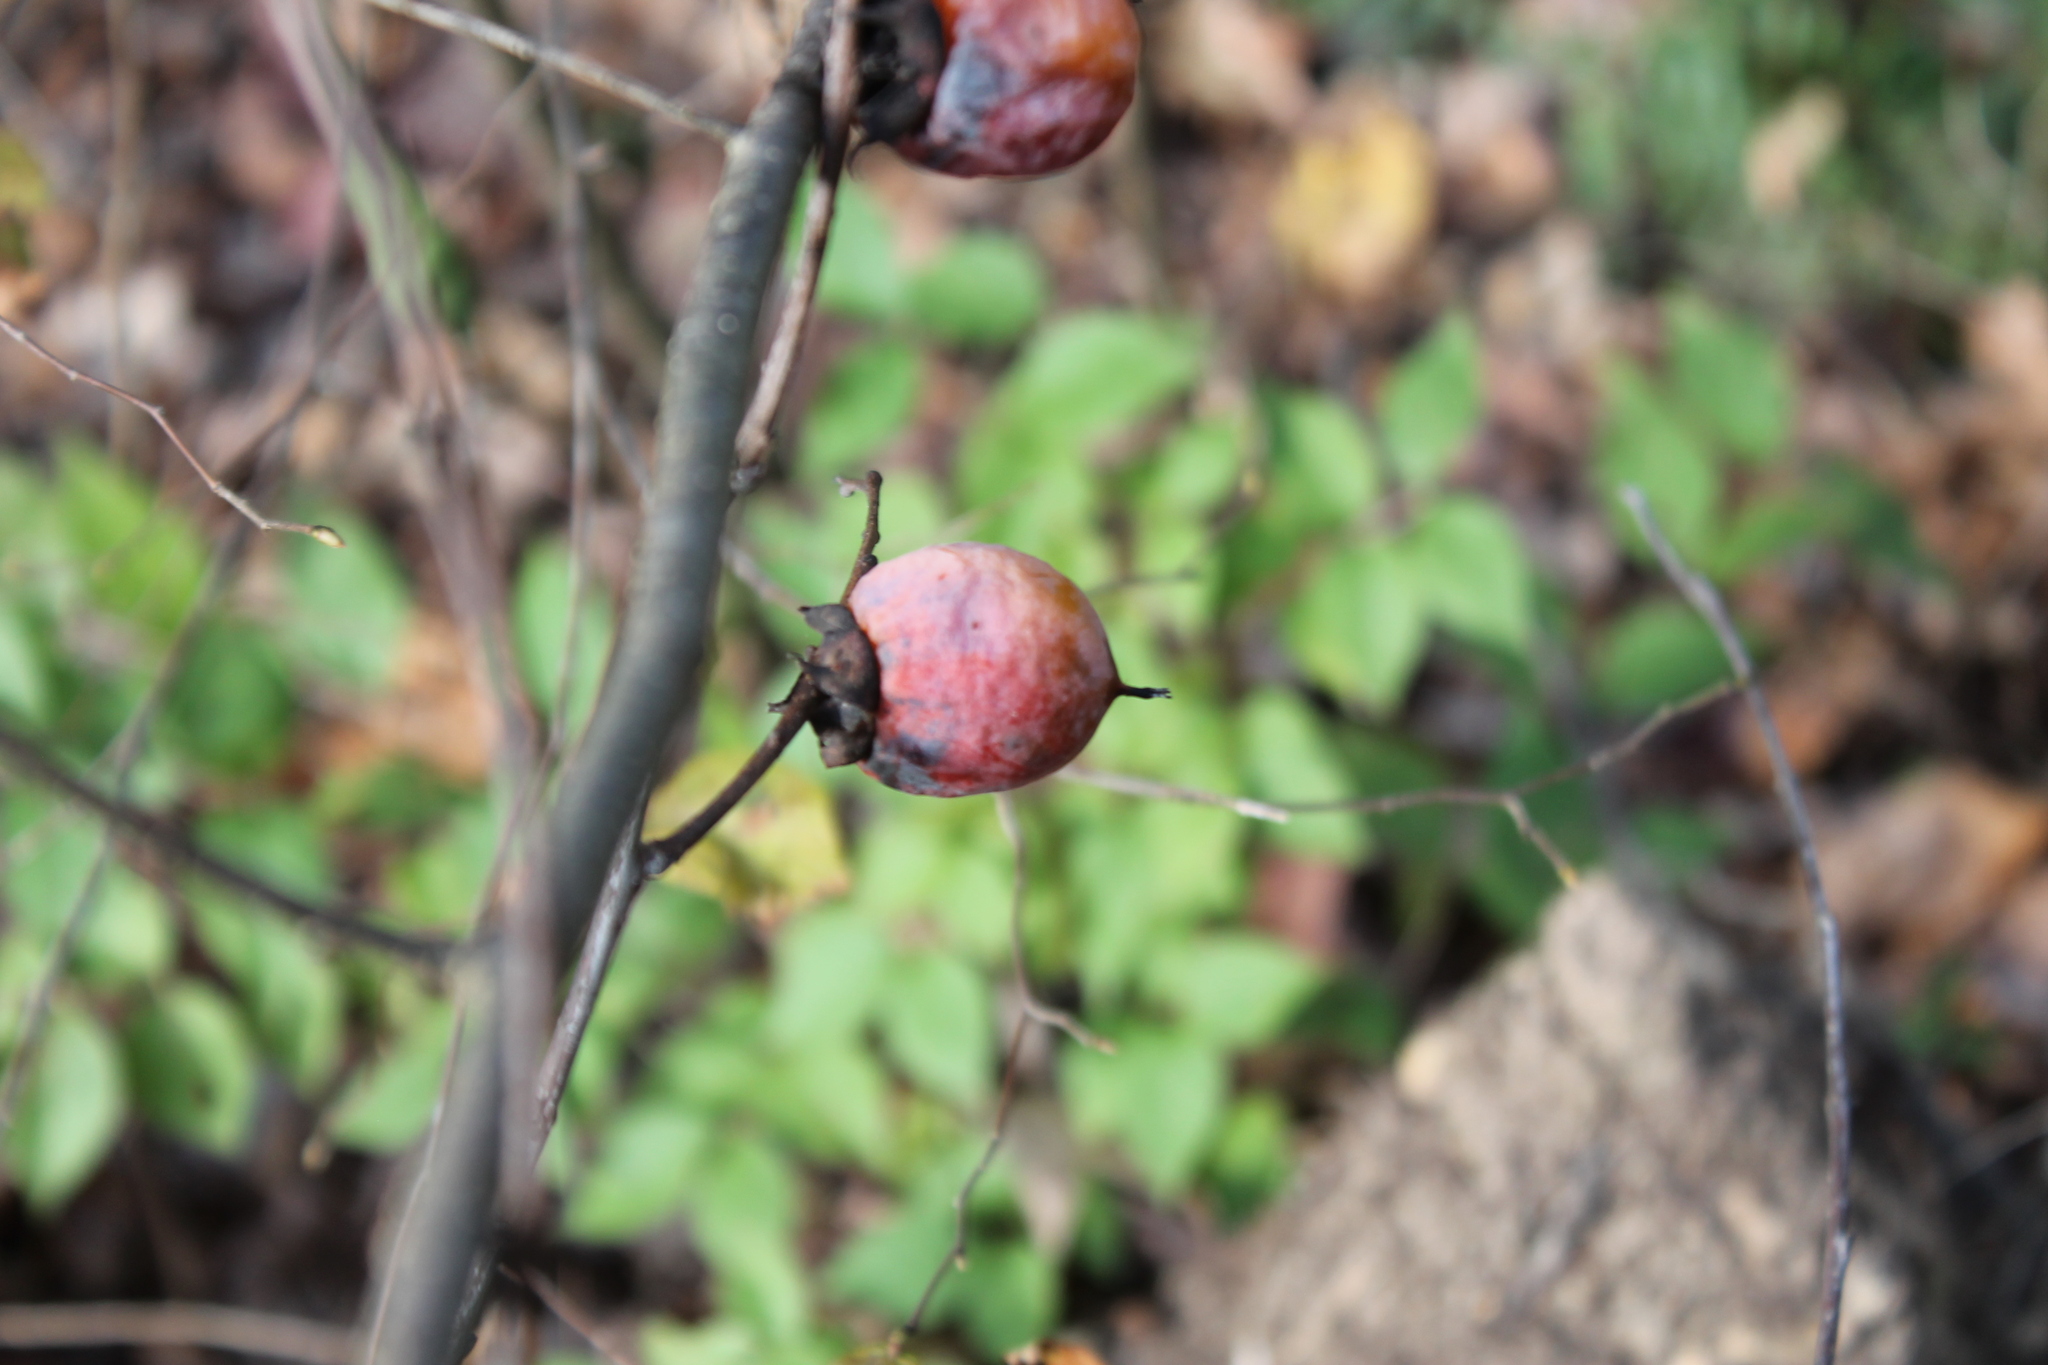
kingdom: Plantae
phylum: Tracheophyta
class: Magnoliopsida
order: Ericales
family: Ebenaceae
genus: Diospyros
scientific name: Diospyros virginiana
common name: Persimmon
